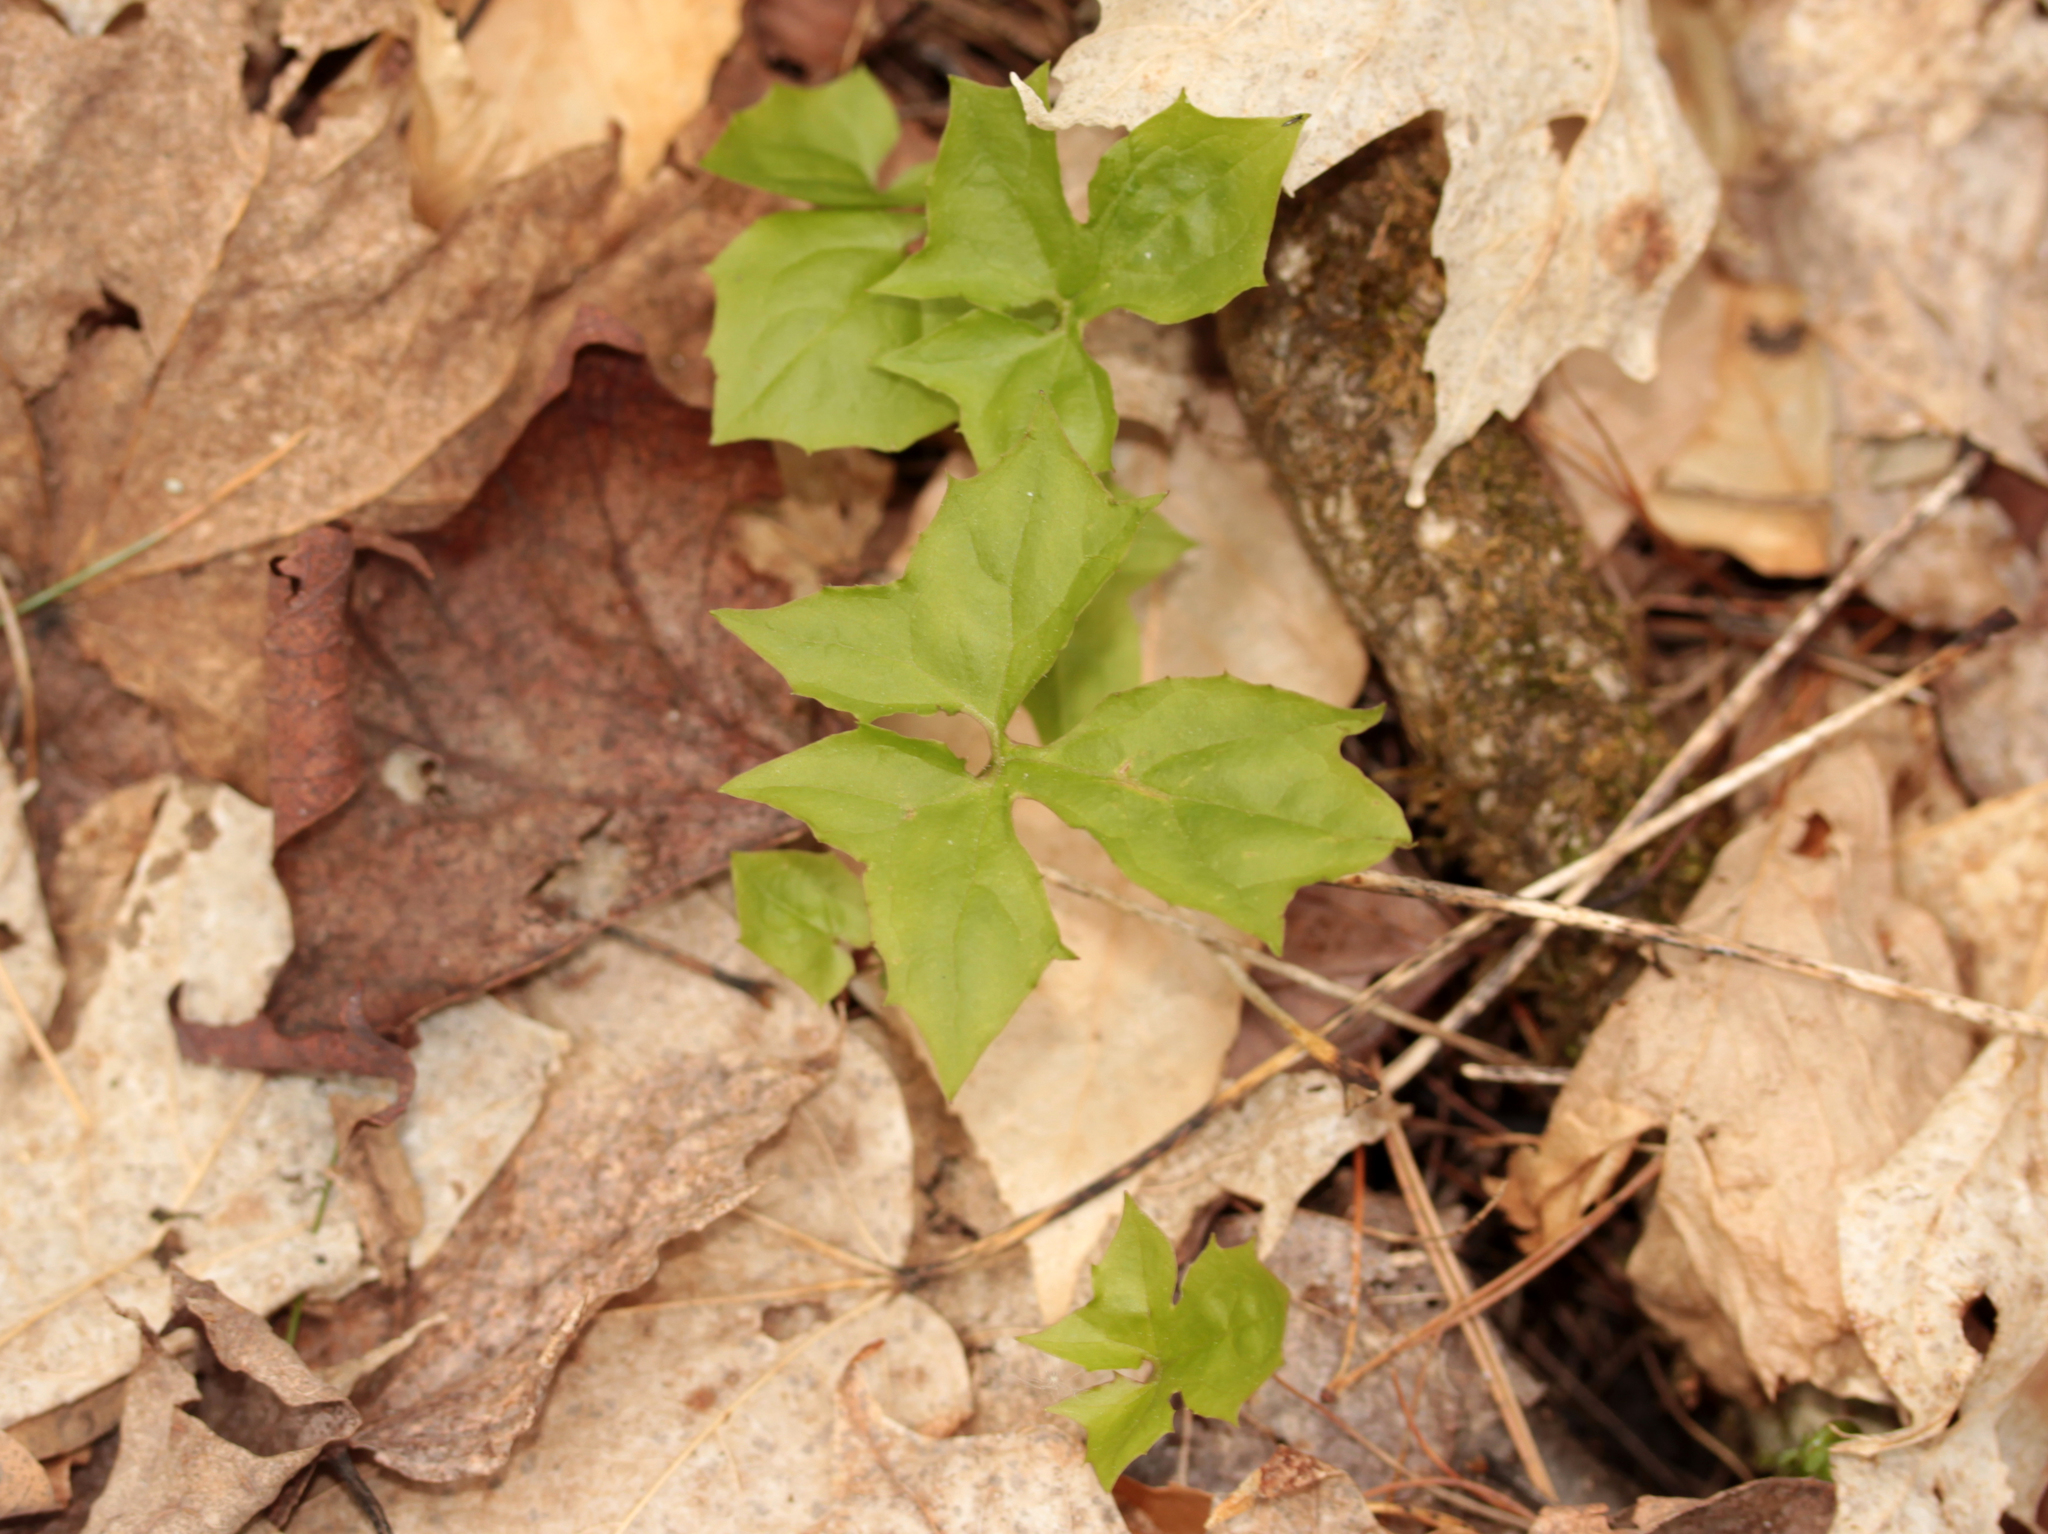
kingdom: Plantae
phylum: Tracheophyta
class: Magnoliopsida
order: Asterales
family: Asteraceae
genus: Nabalus
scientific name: Nabalus trifoliolatus
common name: Gall-of-the-earth
